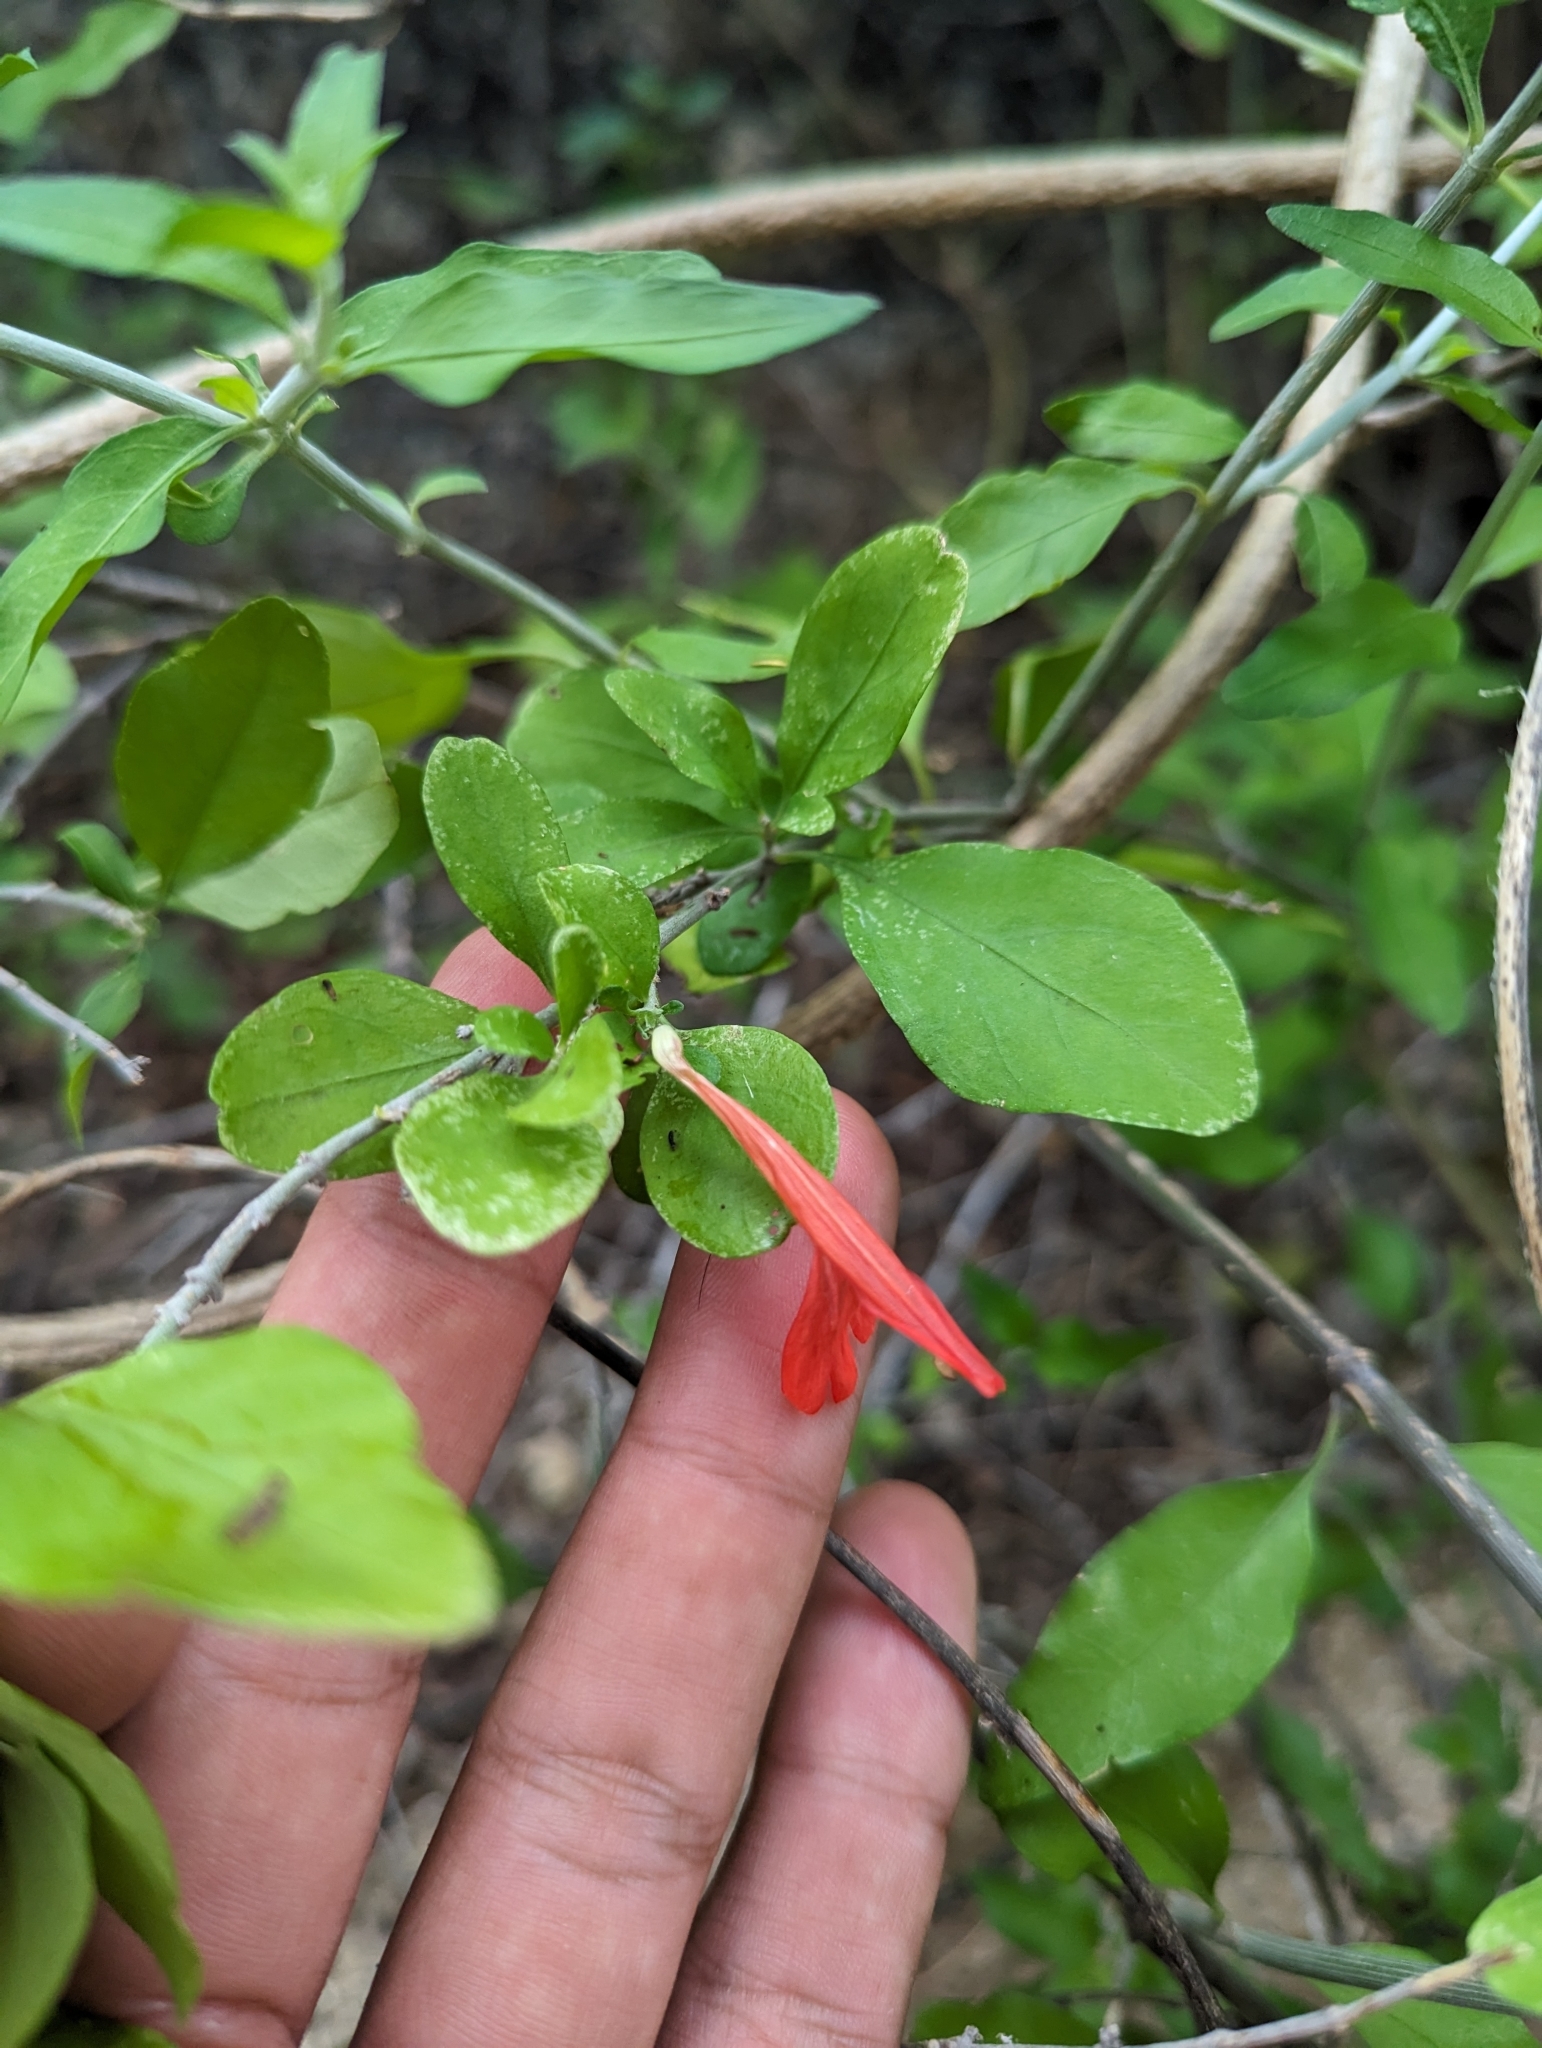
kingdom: Plantae
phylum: Tracheophyta
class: Magnoliopsida
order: Lamiales
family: Acanthaceae
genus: Justicia
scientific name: Justicia palmeri
